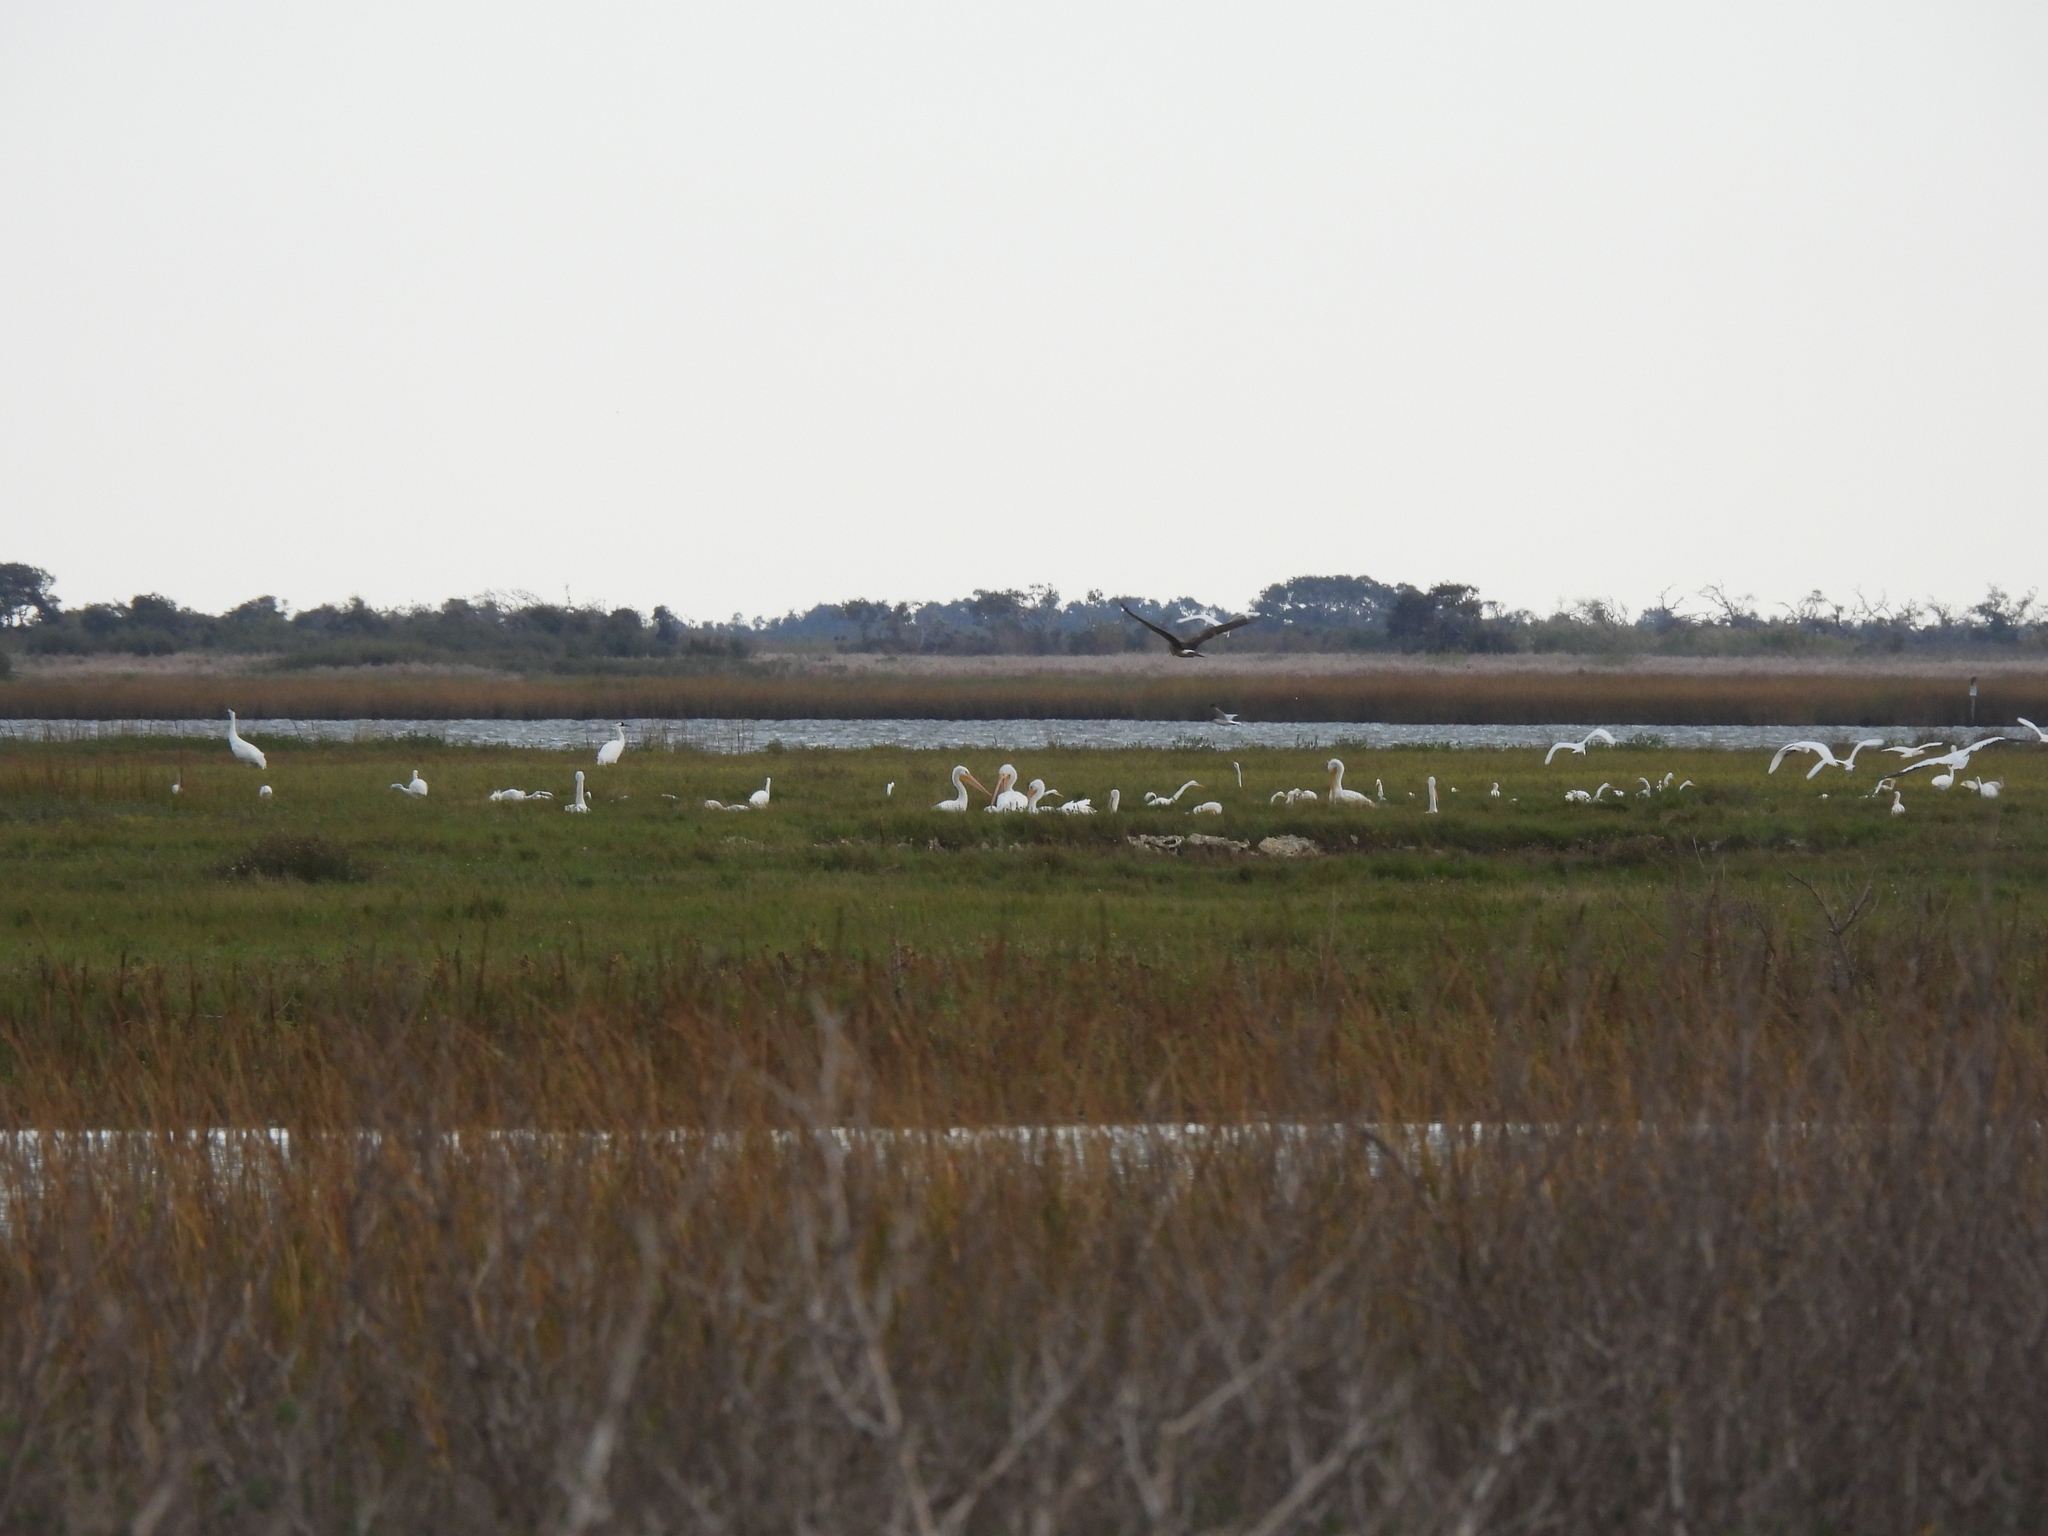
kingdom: Animalia
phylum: Chordata
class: Aves
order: Accipitriformes
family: Accipitridae
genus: Circus
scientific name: Circus cyaneus
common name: Hen harrier
